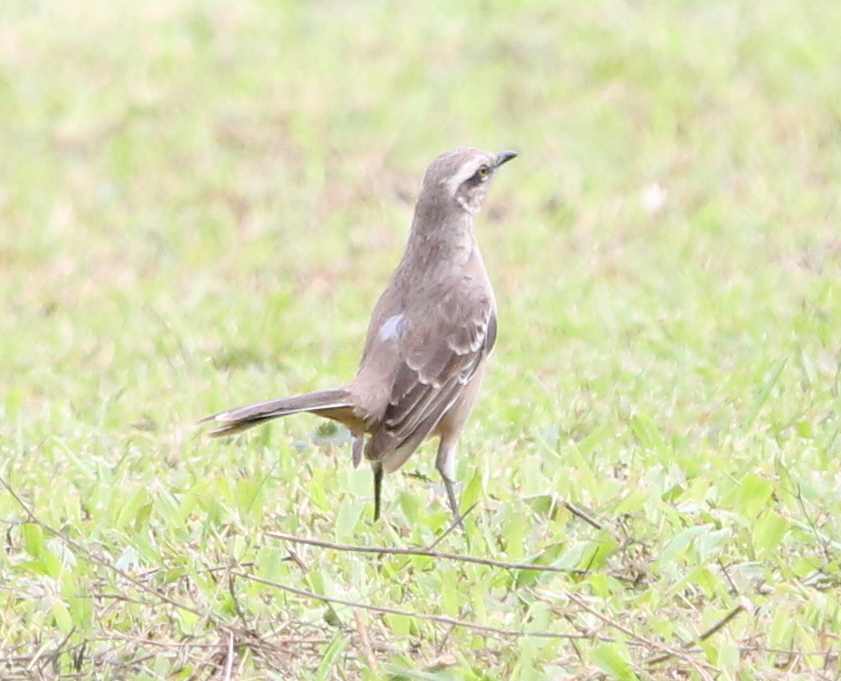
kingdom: Animalia
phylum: Chordata
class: Aves
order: Passeriformes
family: Mimidae
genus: Mimus
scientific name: Mimus saturninus
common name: Chalk-browed mockingbird
